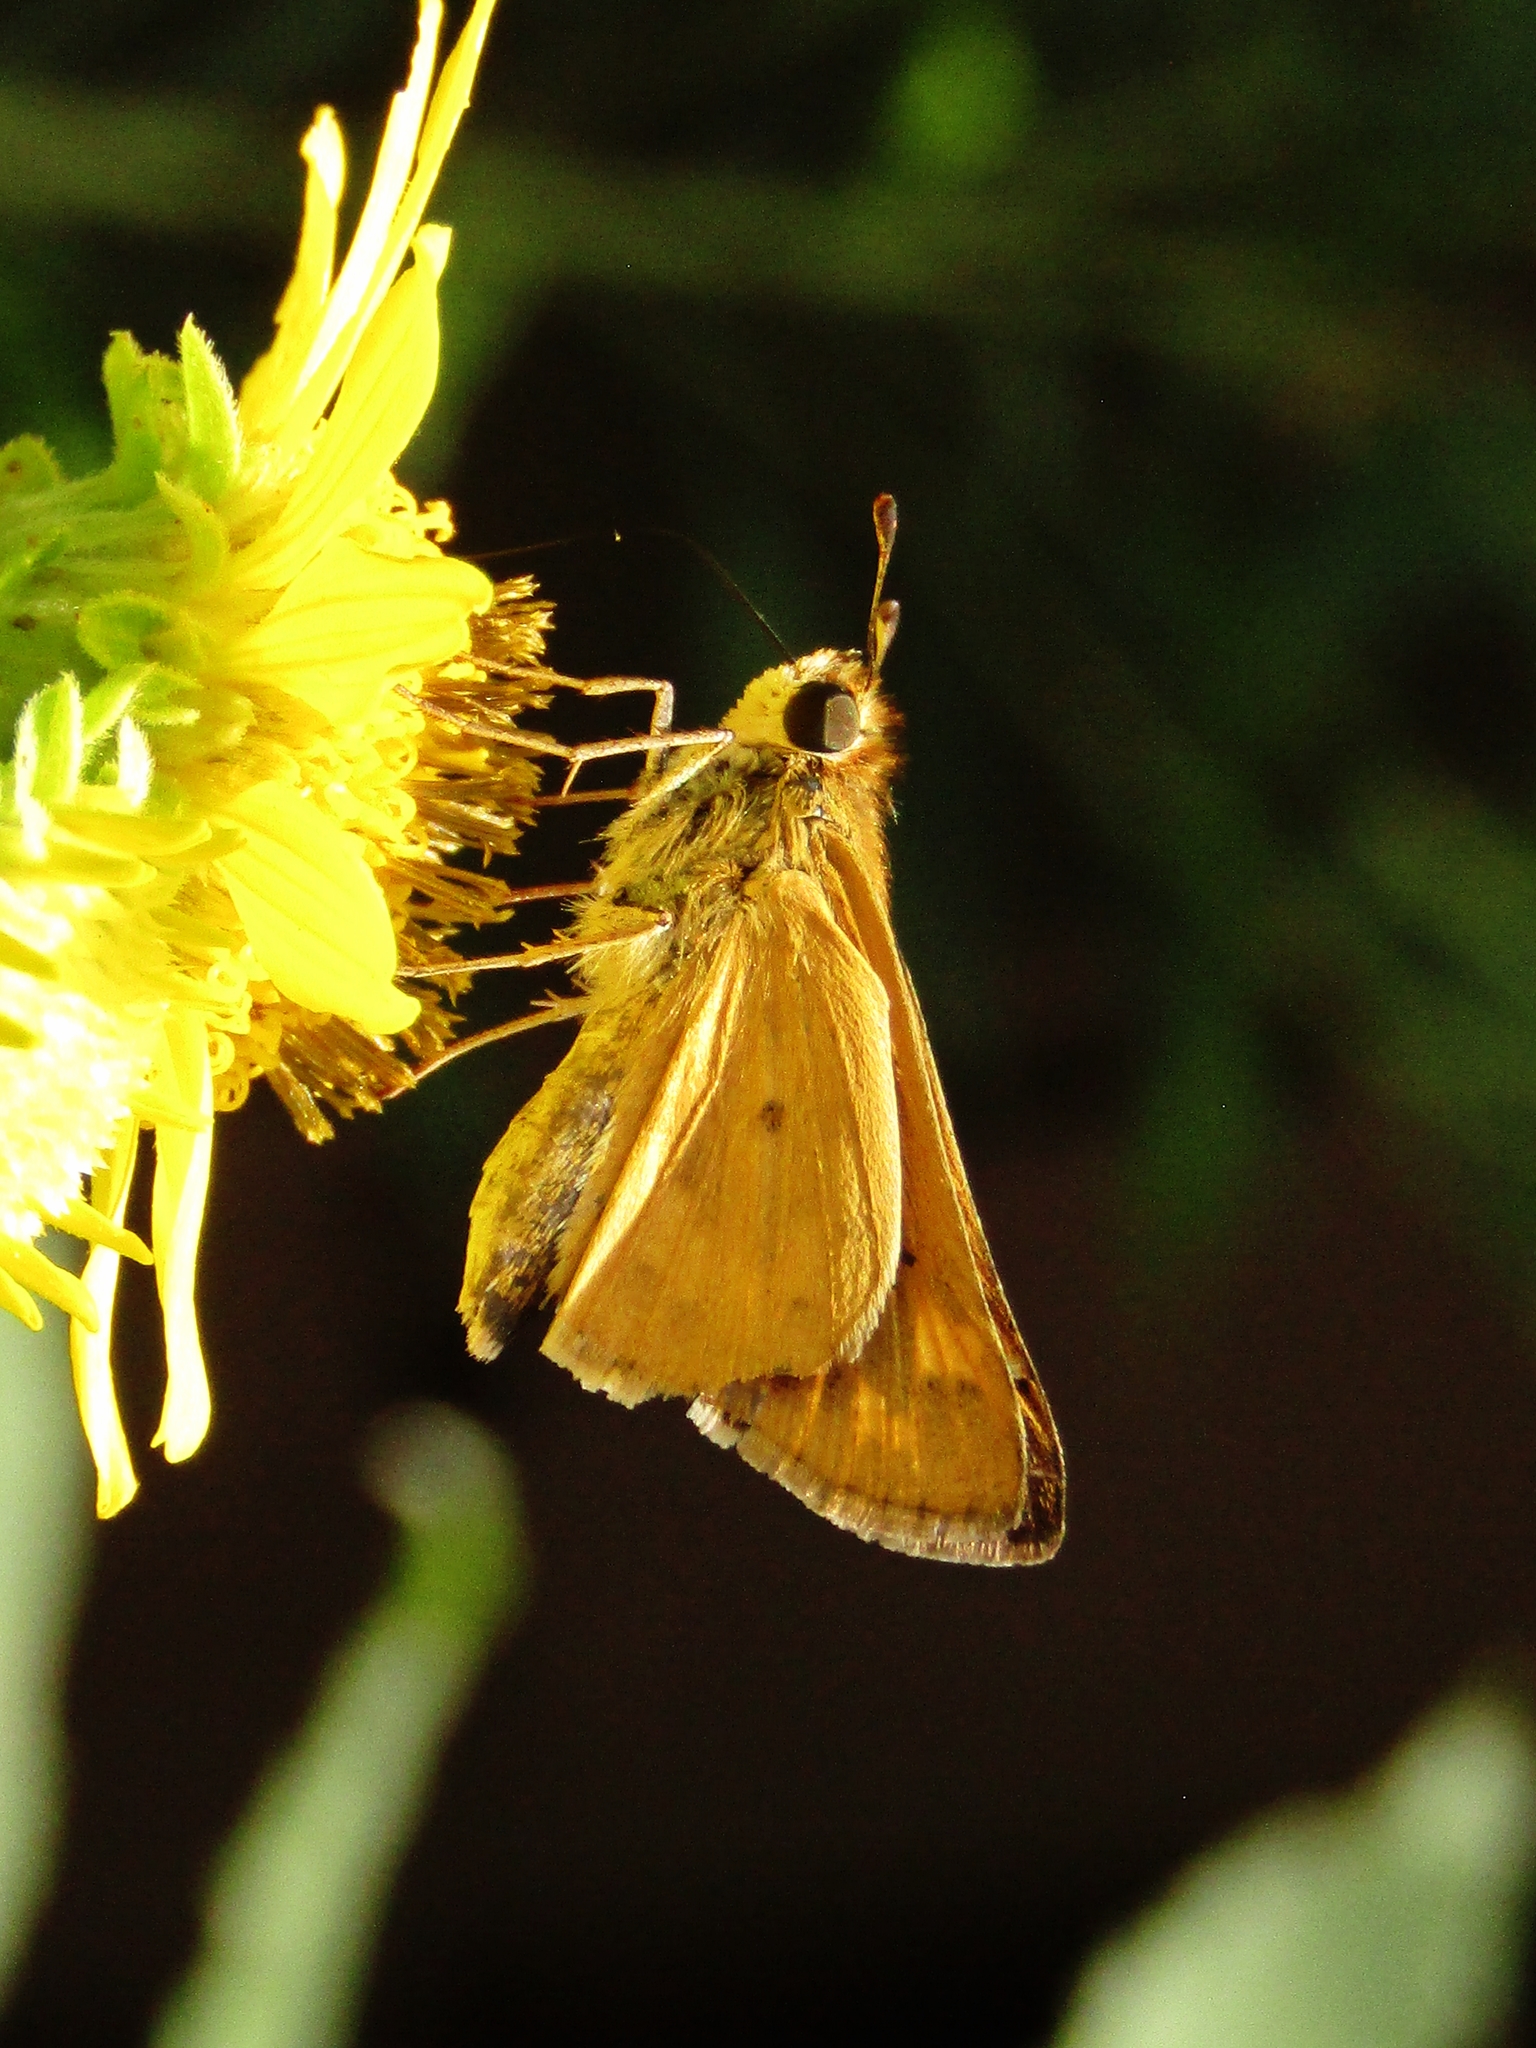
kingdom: Animalia
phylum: Arthropoda
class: Insecta
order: Lepidoptera
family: Hesperiidae
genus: Hylephila
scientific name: Hylephila phyleus
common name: Fiery skipper
